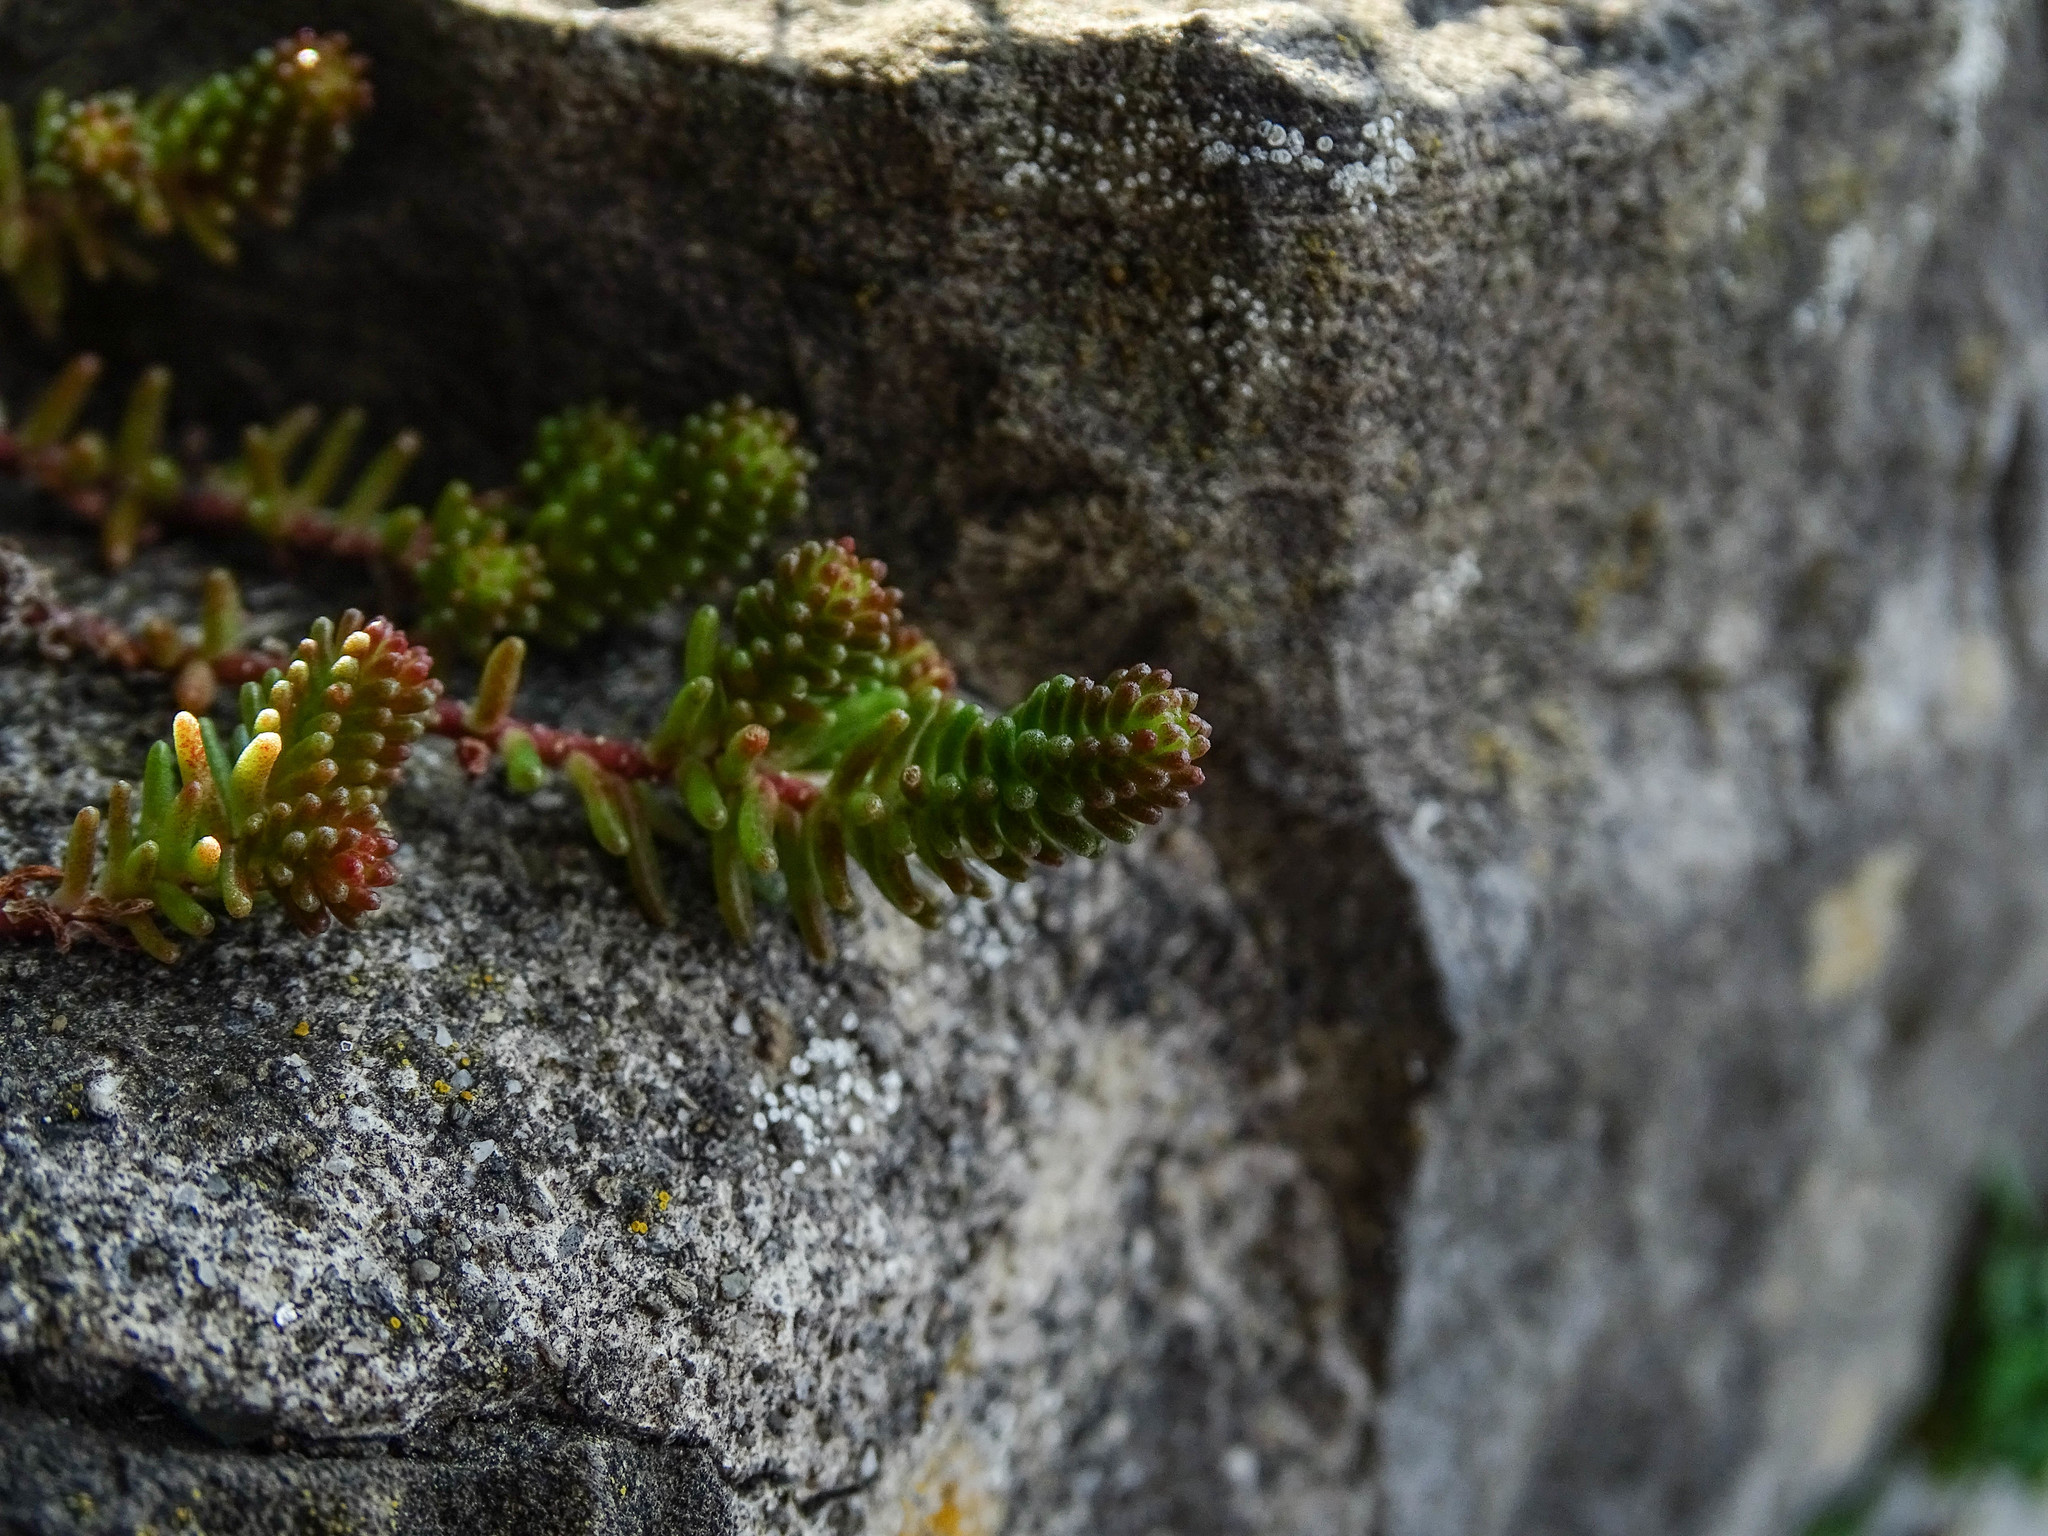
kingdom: Plantae
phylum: Tracheophyta
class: Magnoliopsida
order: Saxifragales
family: Crassulaceae
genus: Sedum
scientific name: Sedum sexangulare
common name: Tasteless stonecrop
